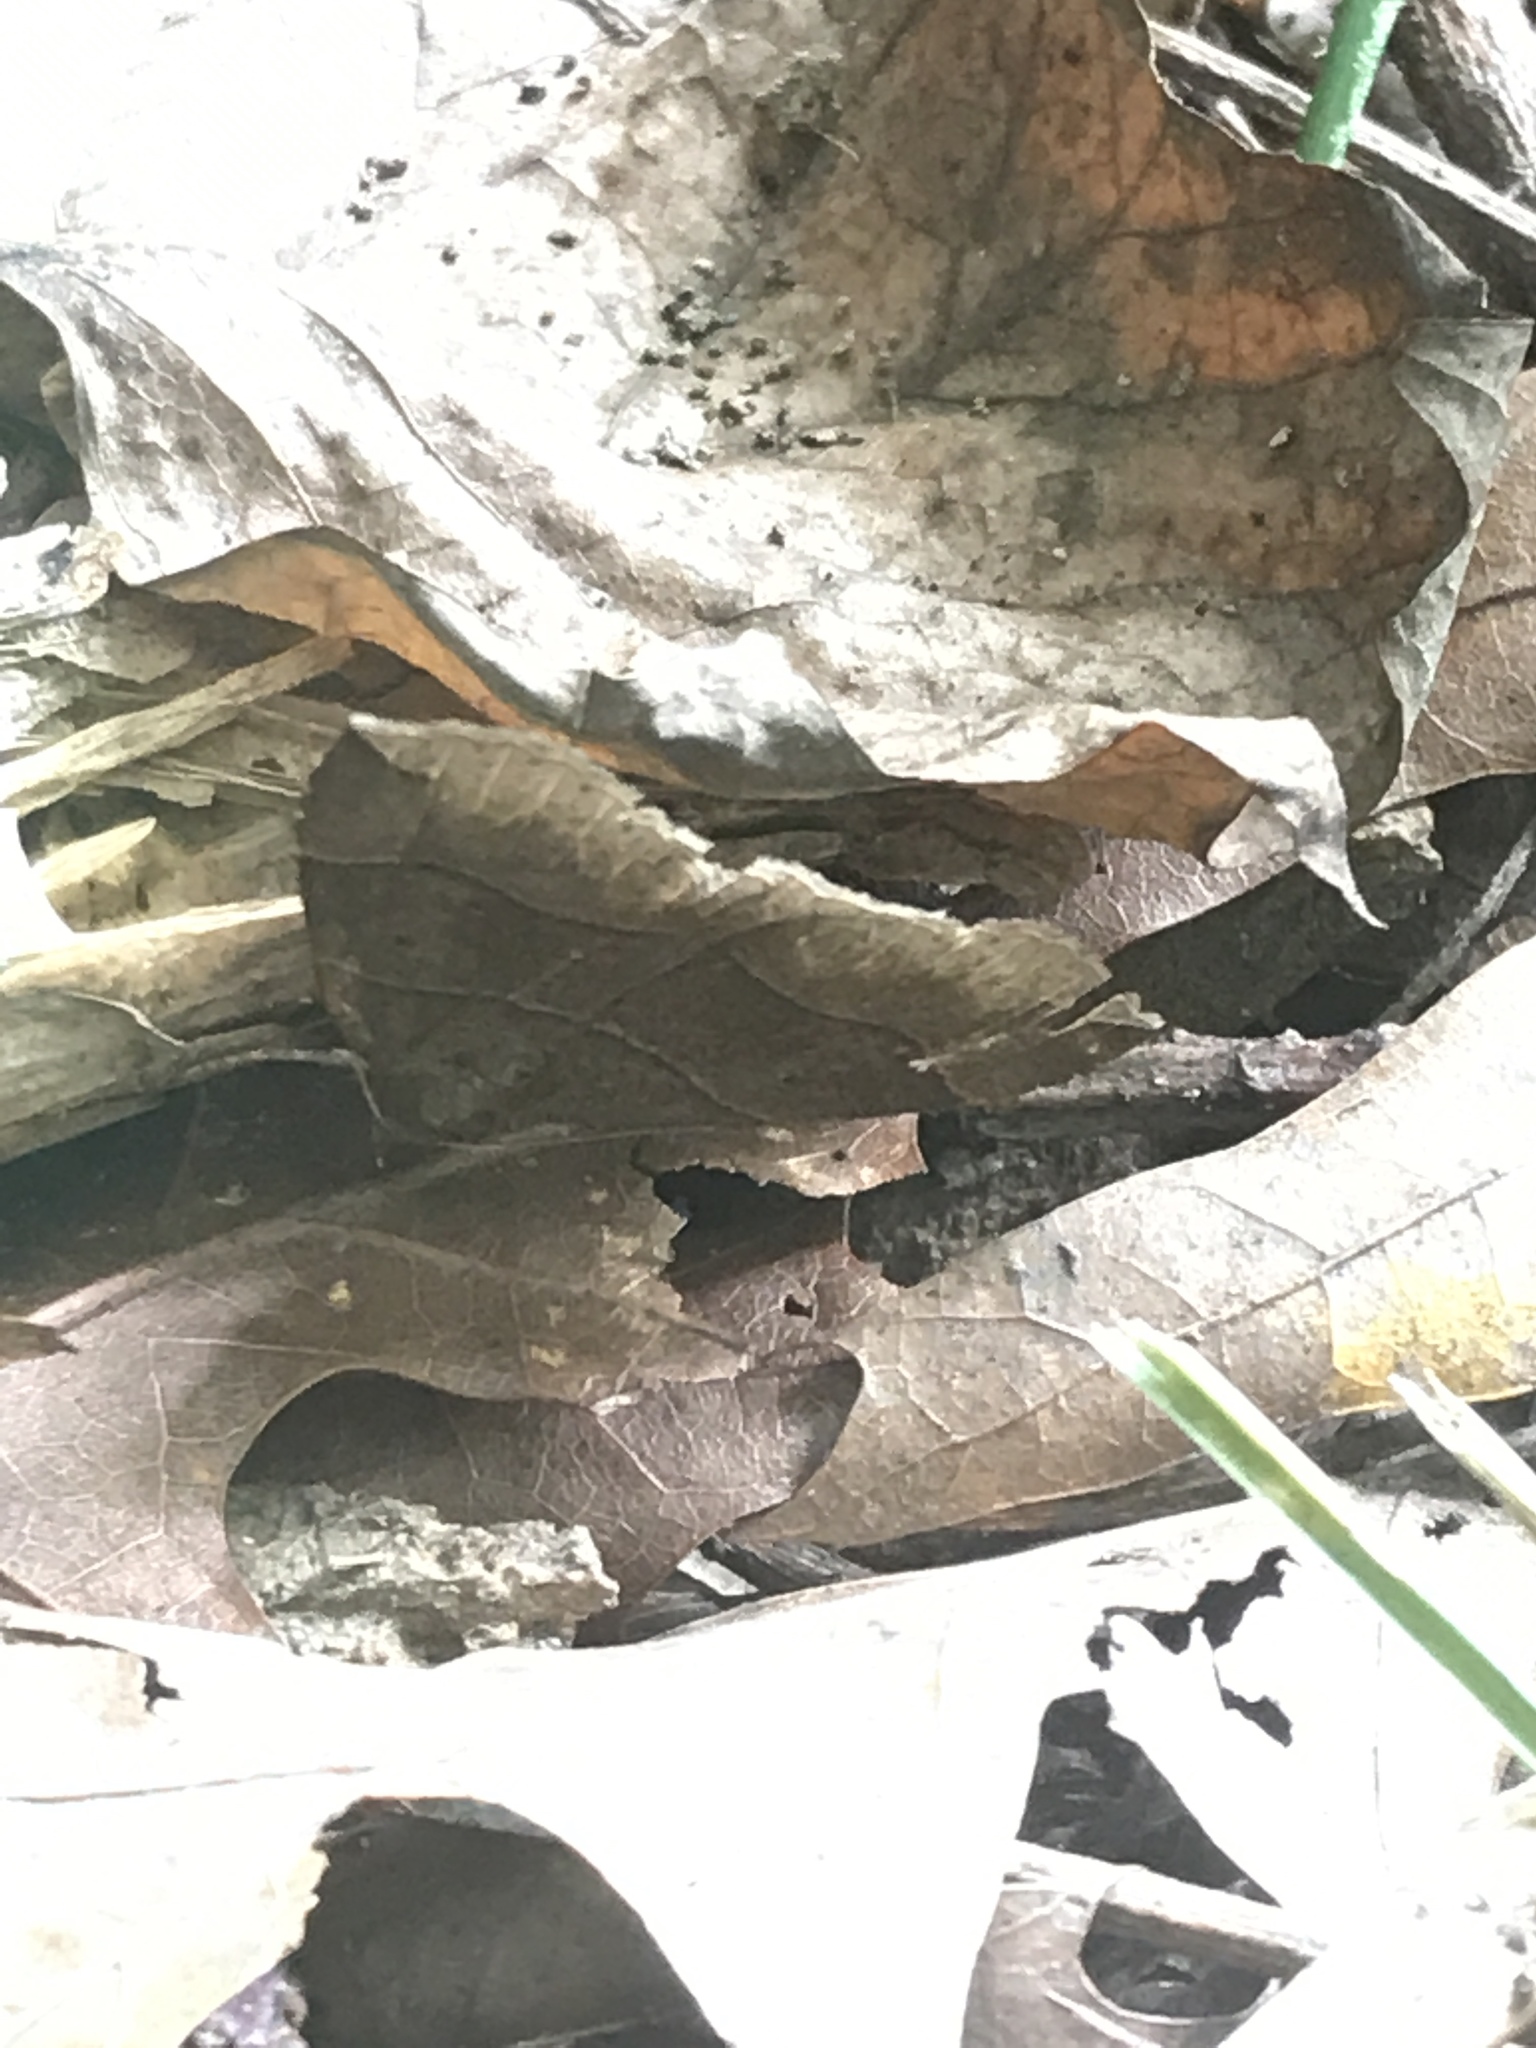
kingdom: Animalia
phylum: Arthropoda
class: Insecta
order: Lepidoptera
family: Erebidae
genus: Parallelia
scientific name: Parallelia bistriaris
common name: Maple looper moth
